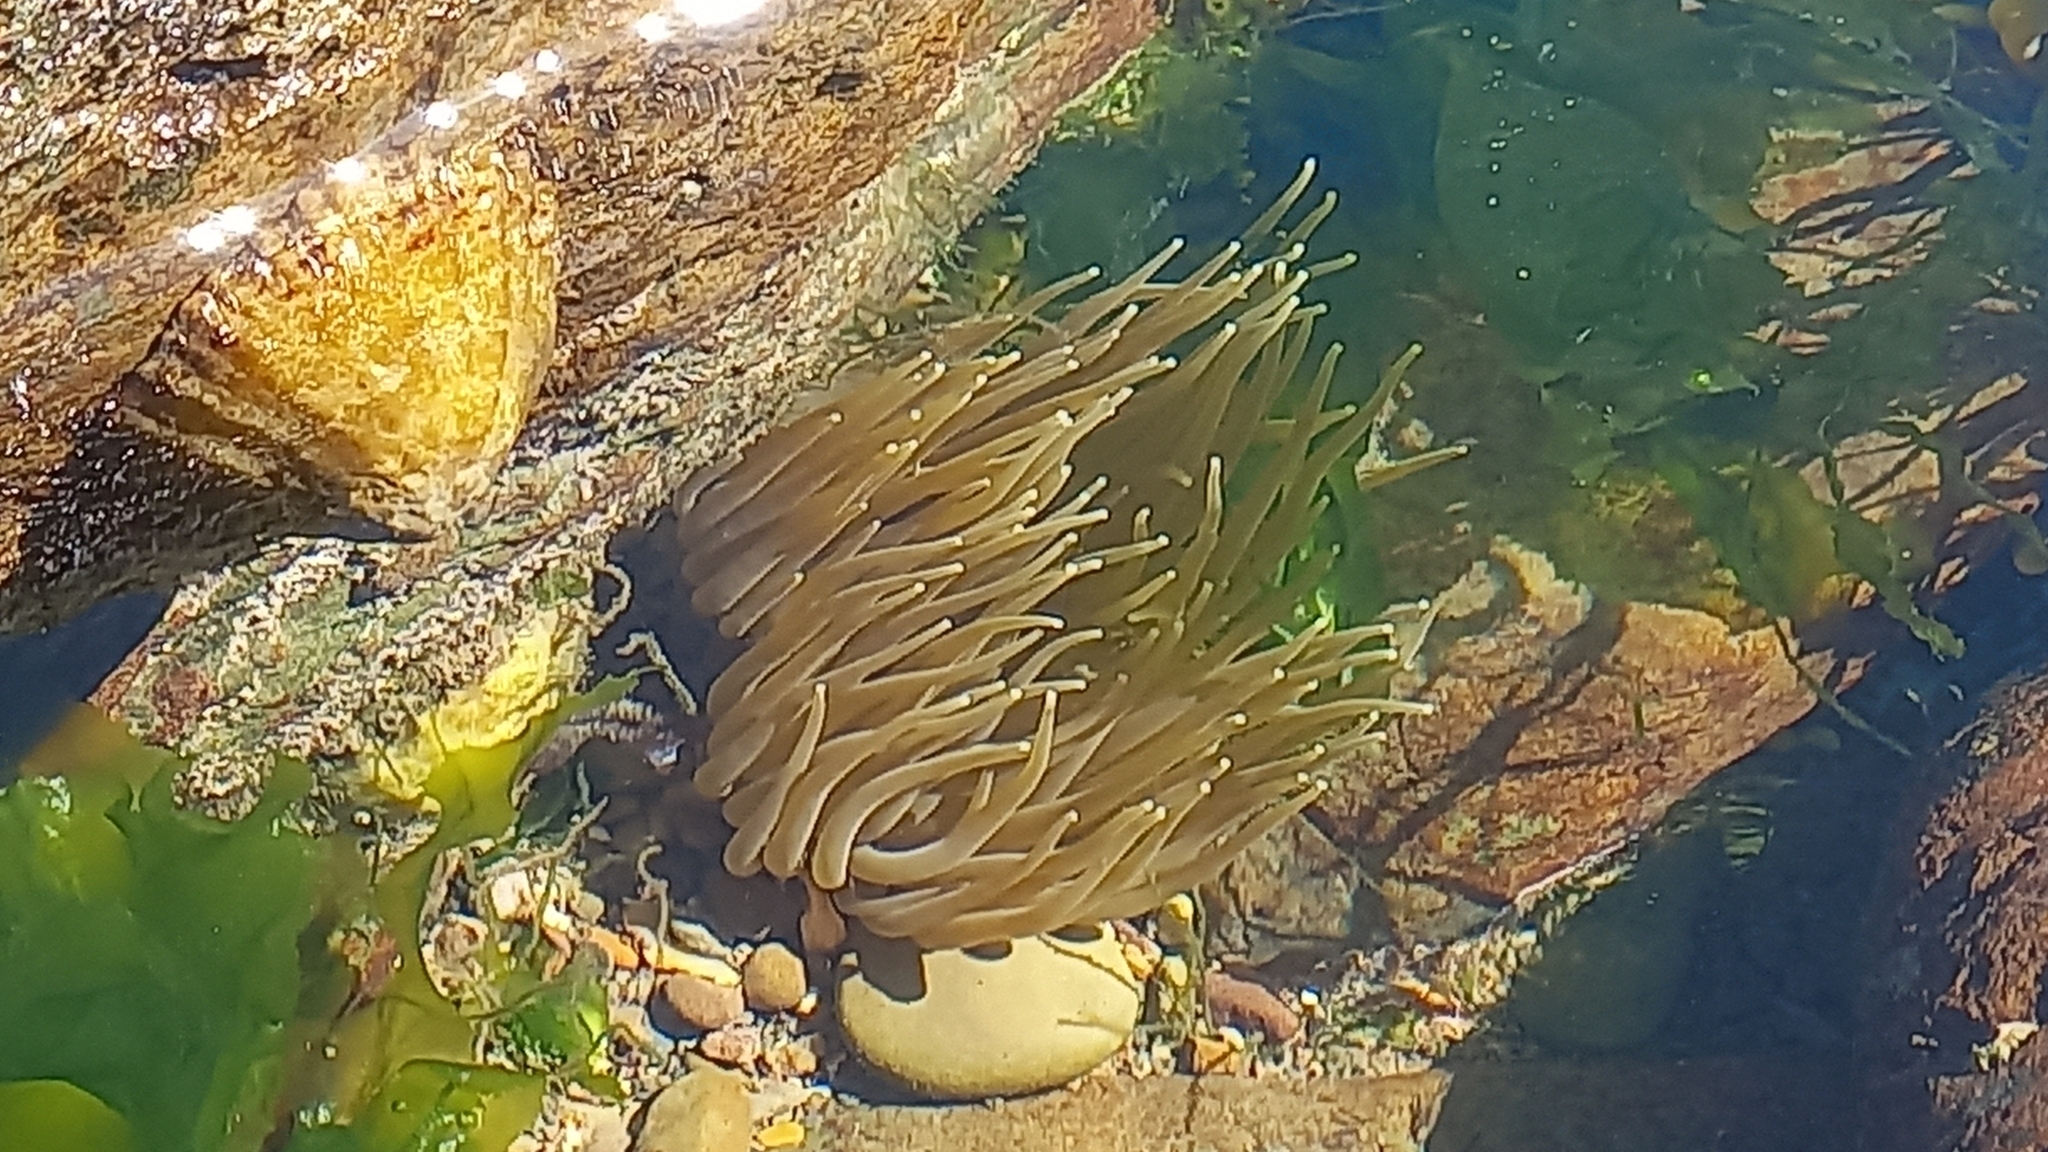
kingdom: Animalia
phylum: Cnidaria
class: Anthozoa
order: Actiniaria
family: Actiniidae
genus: Anemonia
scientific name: Anemonia viridis
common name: Snakelocks anemone
